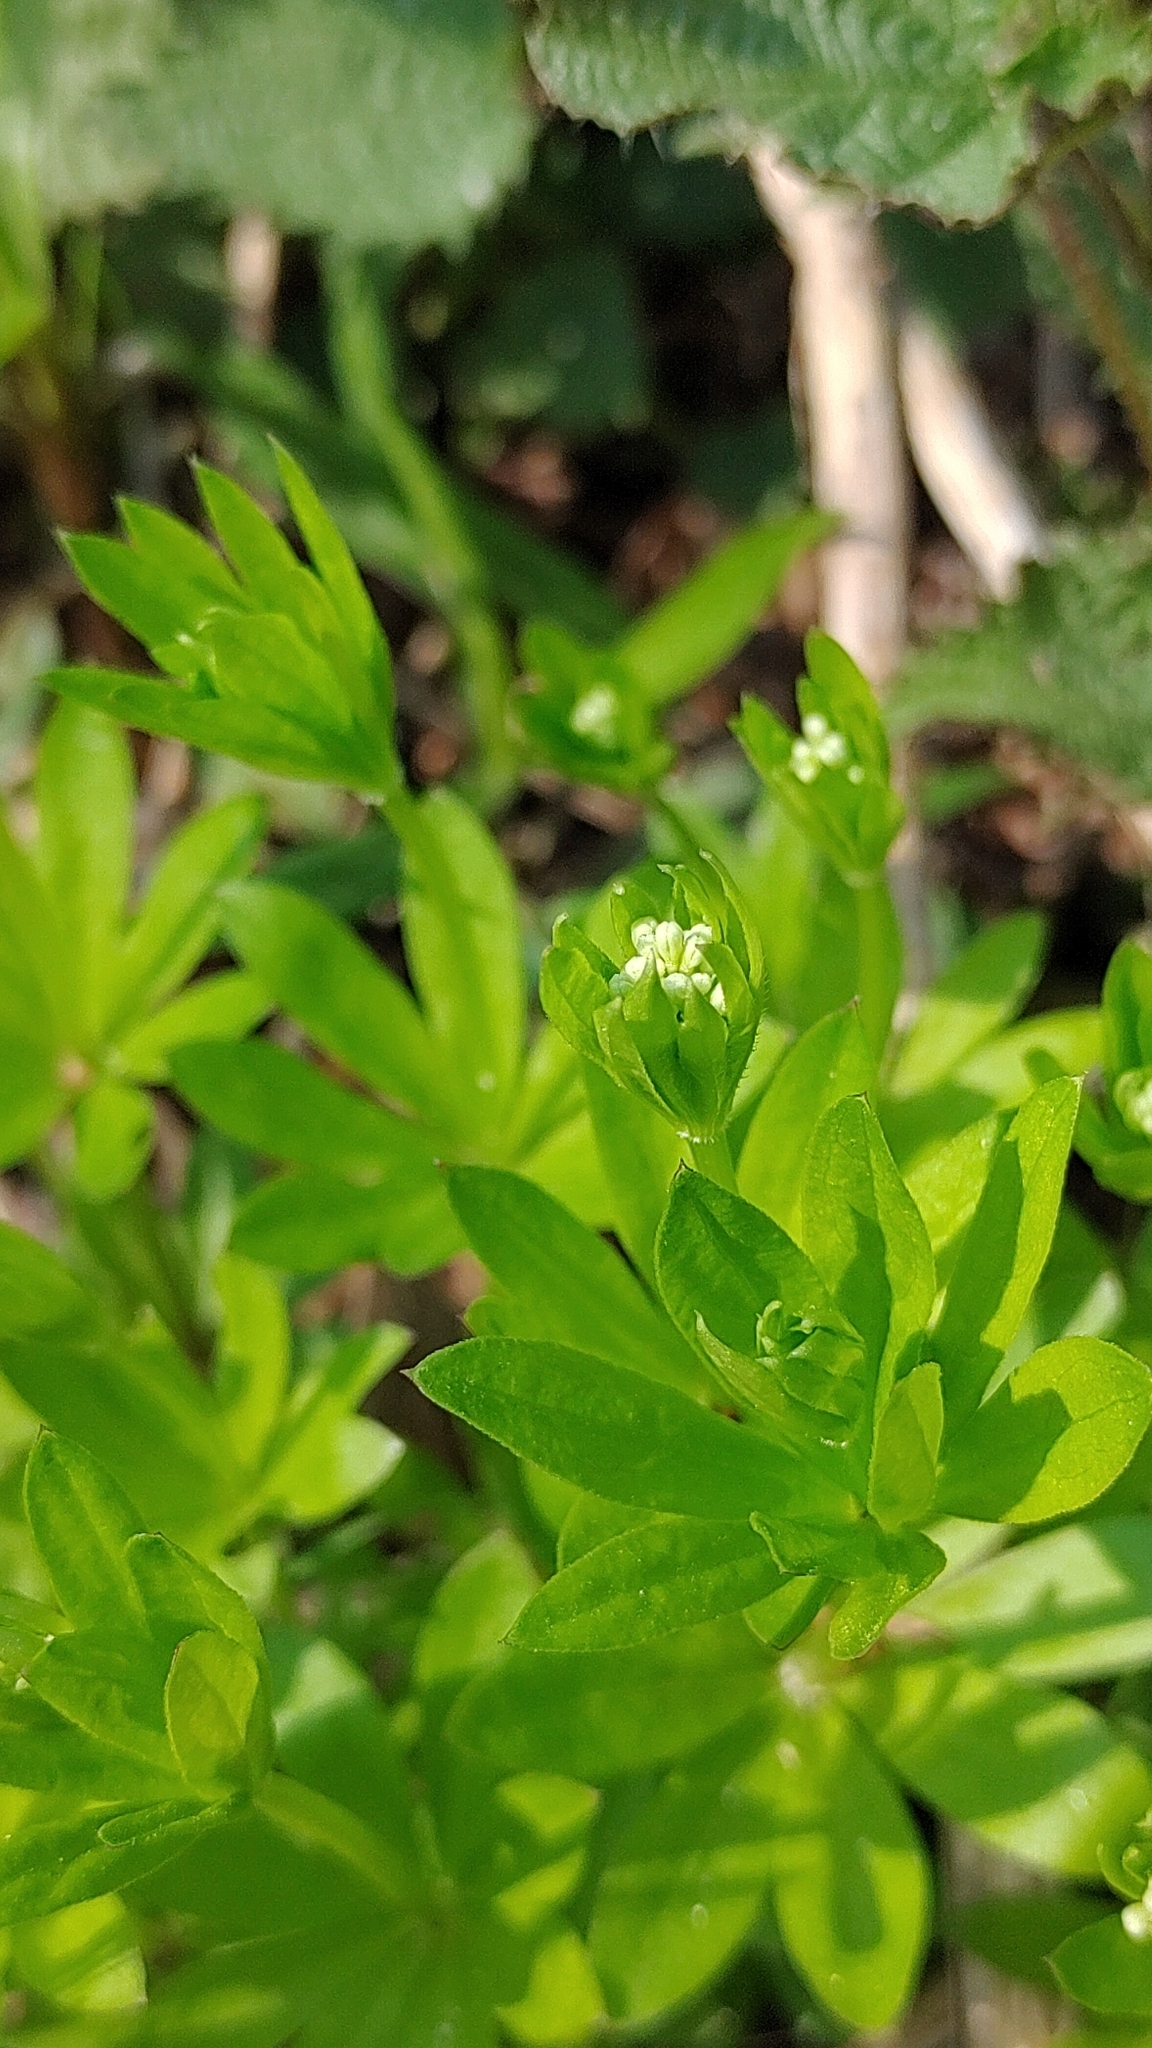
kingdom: Plantae
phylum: Tracheophyta
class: Magnoliopsida
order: Gentianales
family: Rubiaceae
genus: Galium
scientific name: Galium odoratum
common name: Sweet woodruff
